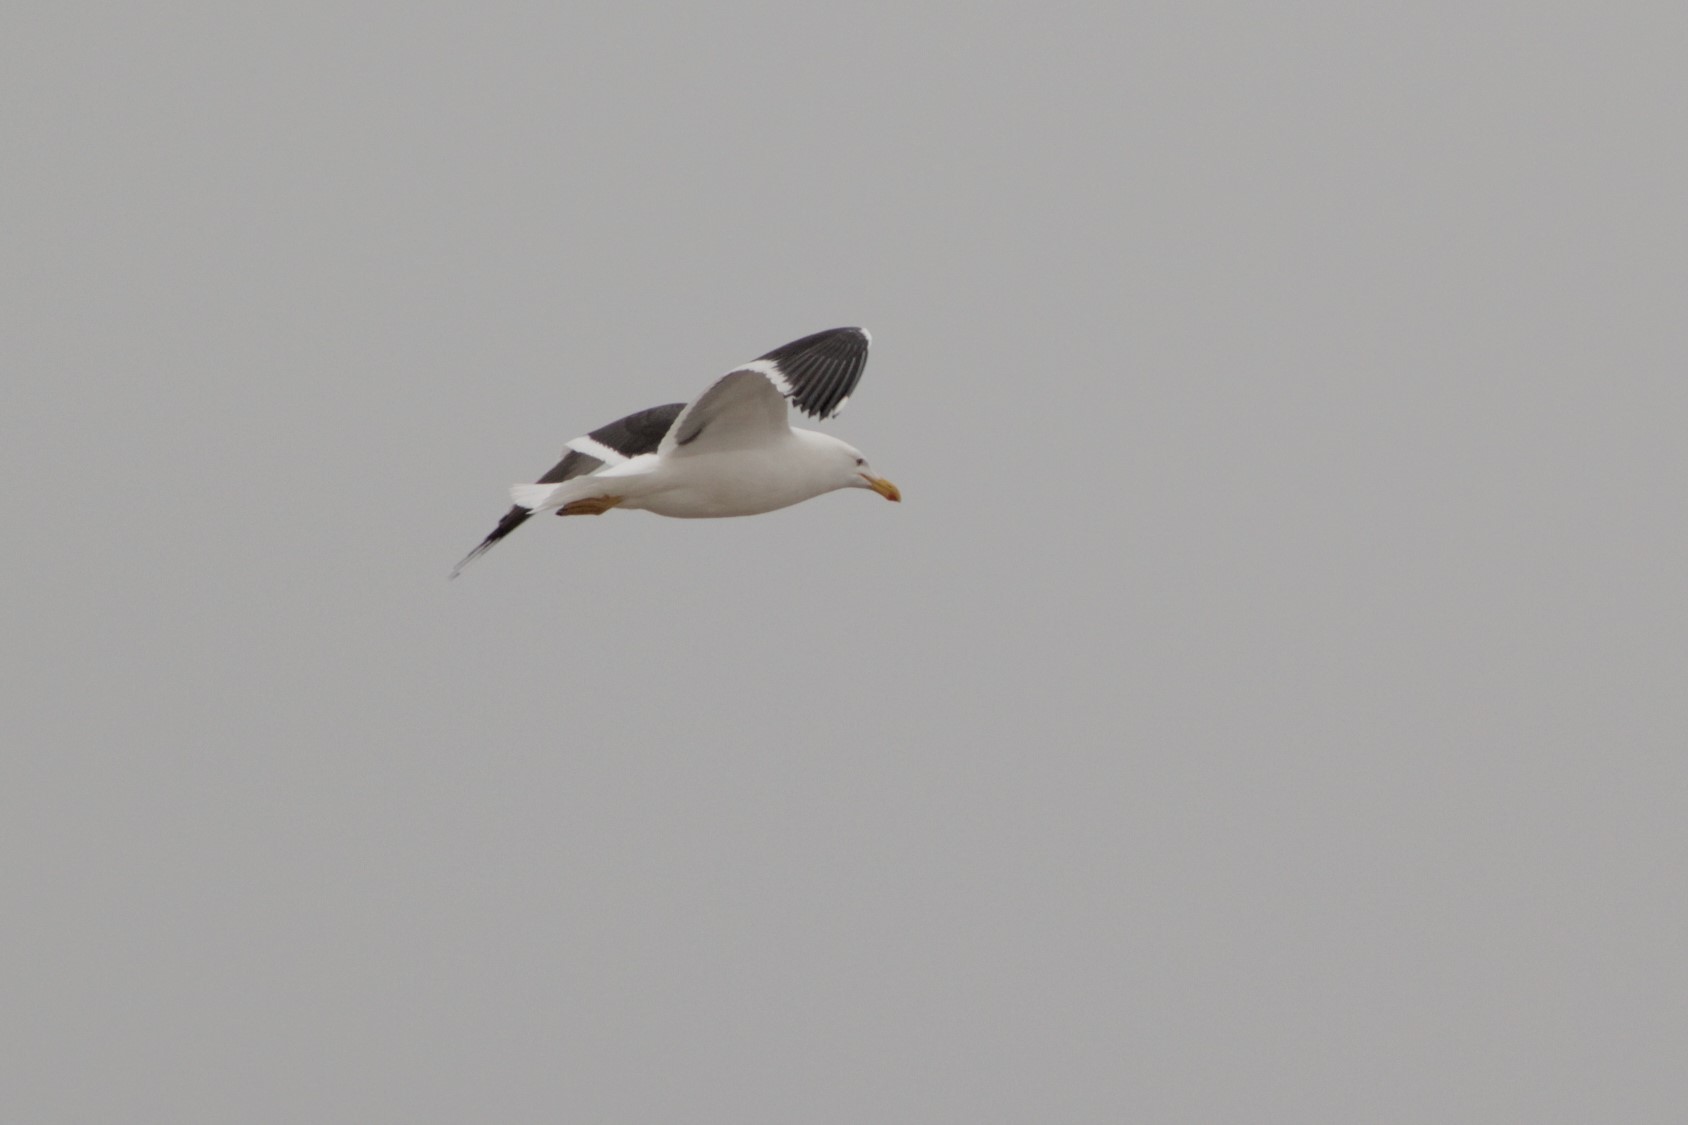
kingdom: Animalia
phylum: Chordata
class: Aves
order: Charadriiformes
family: Laridae
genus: Larus
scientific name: Larus dominicanus
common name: Kelp gull
